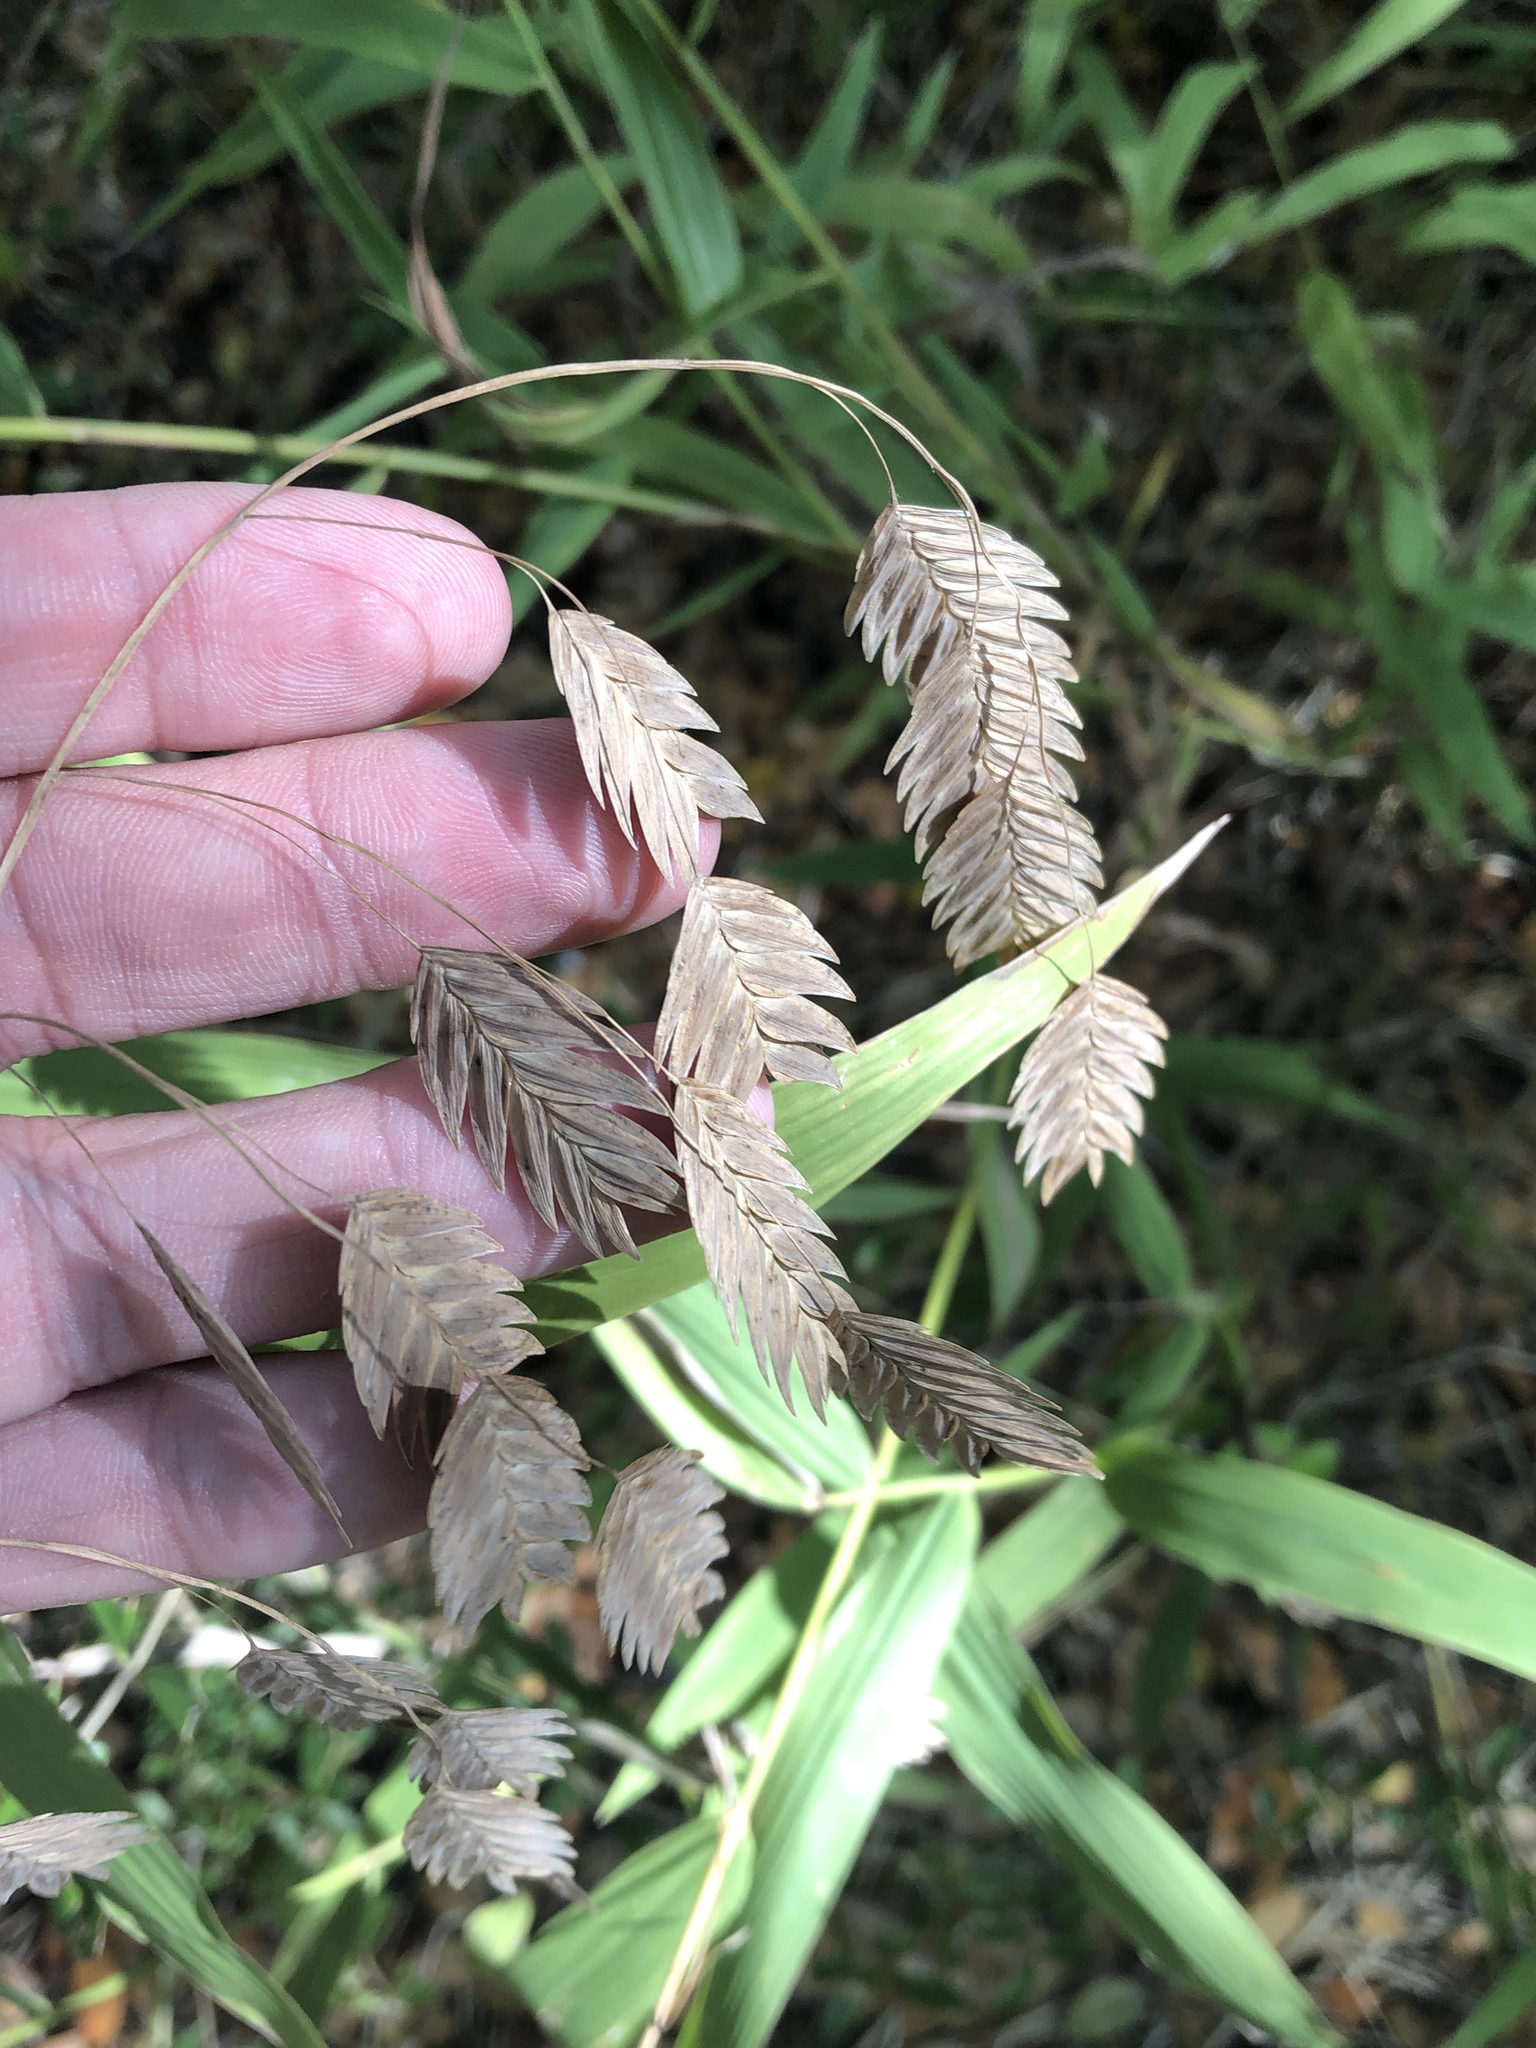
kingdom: Plantae
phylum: Tracheophyta
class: Liliopsida
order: Poales
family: Poaceae
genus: Chasmanthium
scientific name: Chasmanthium latifolium
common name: Broad-leaved chasmanthium
